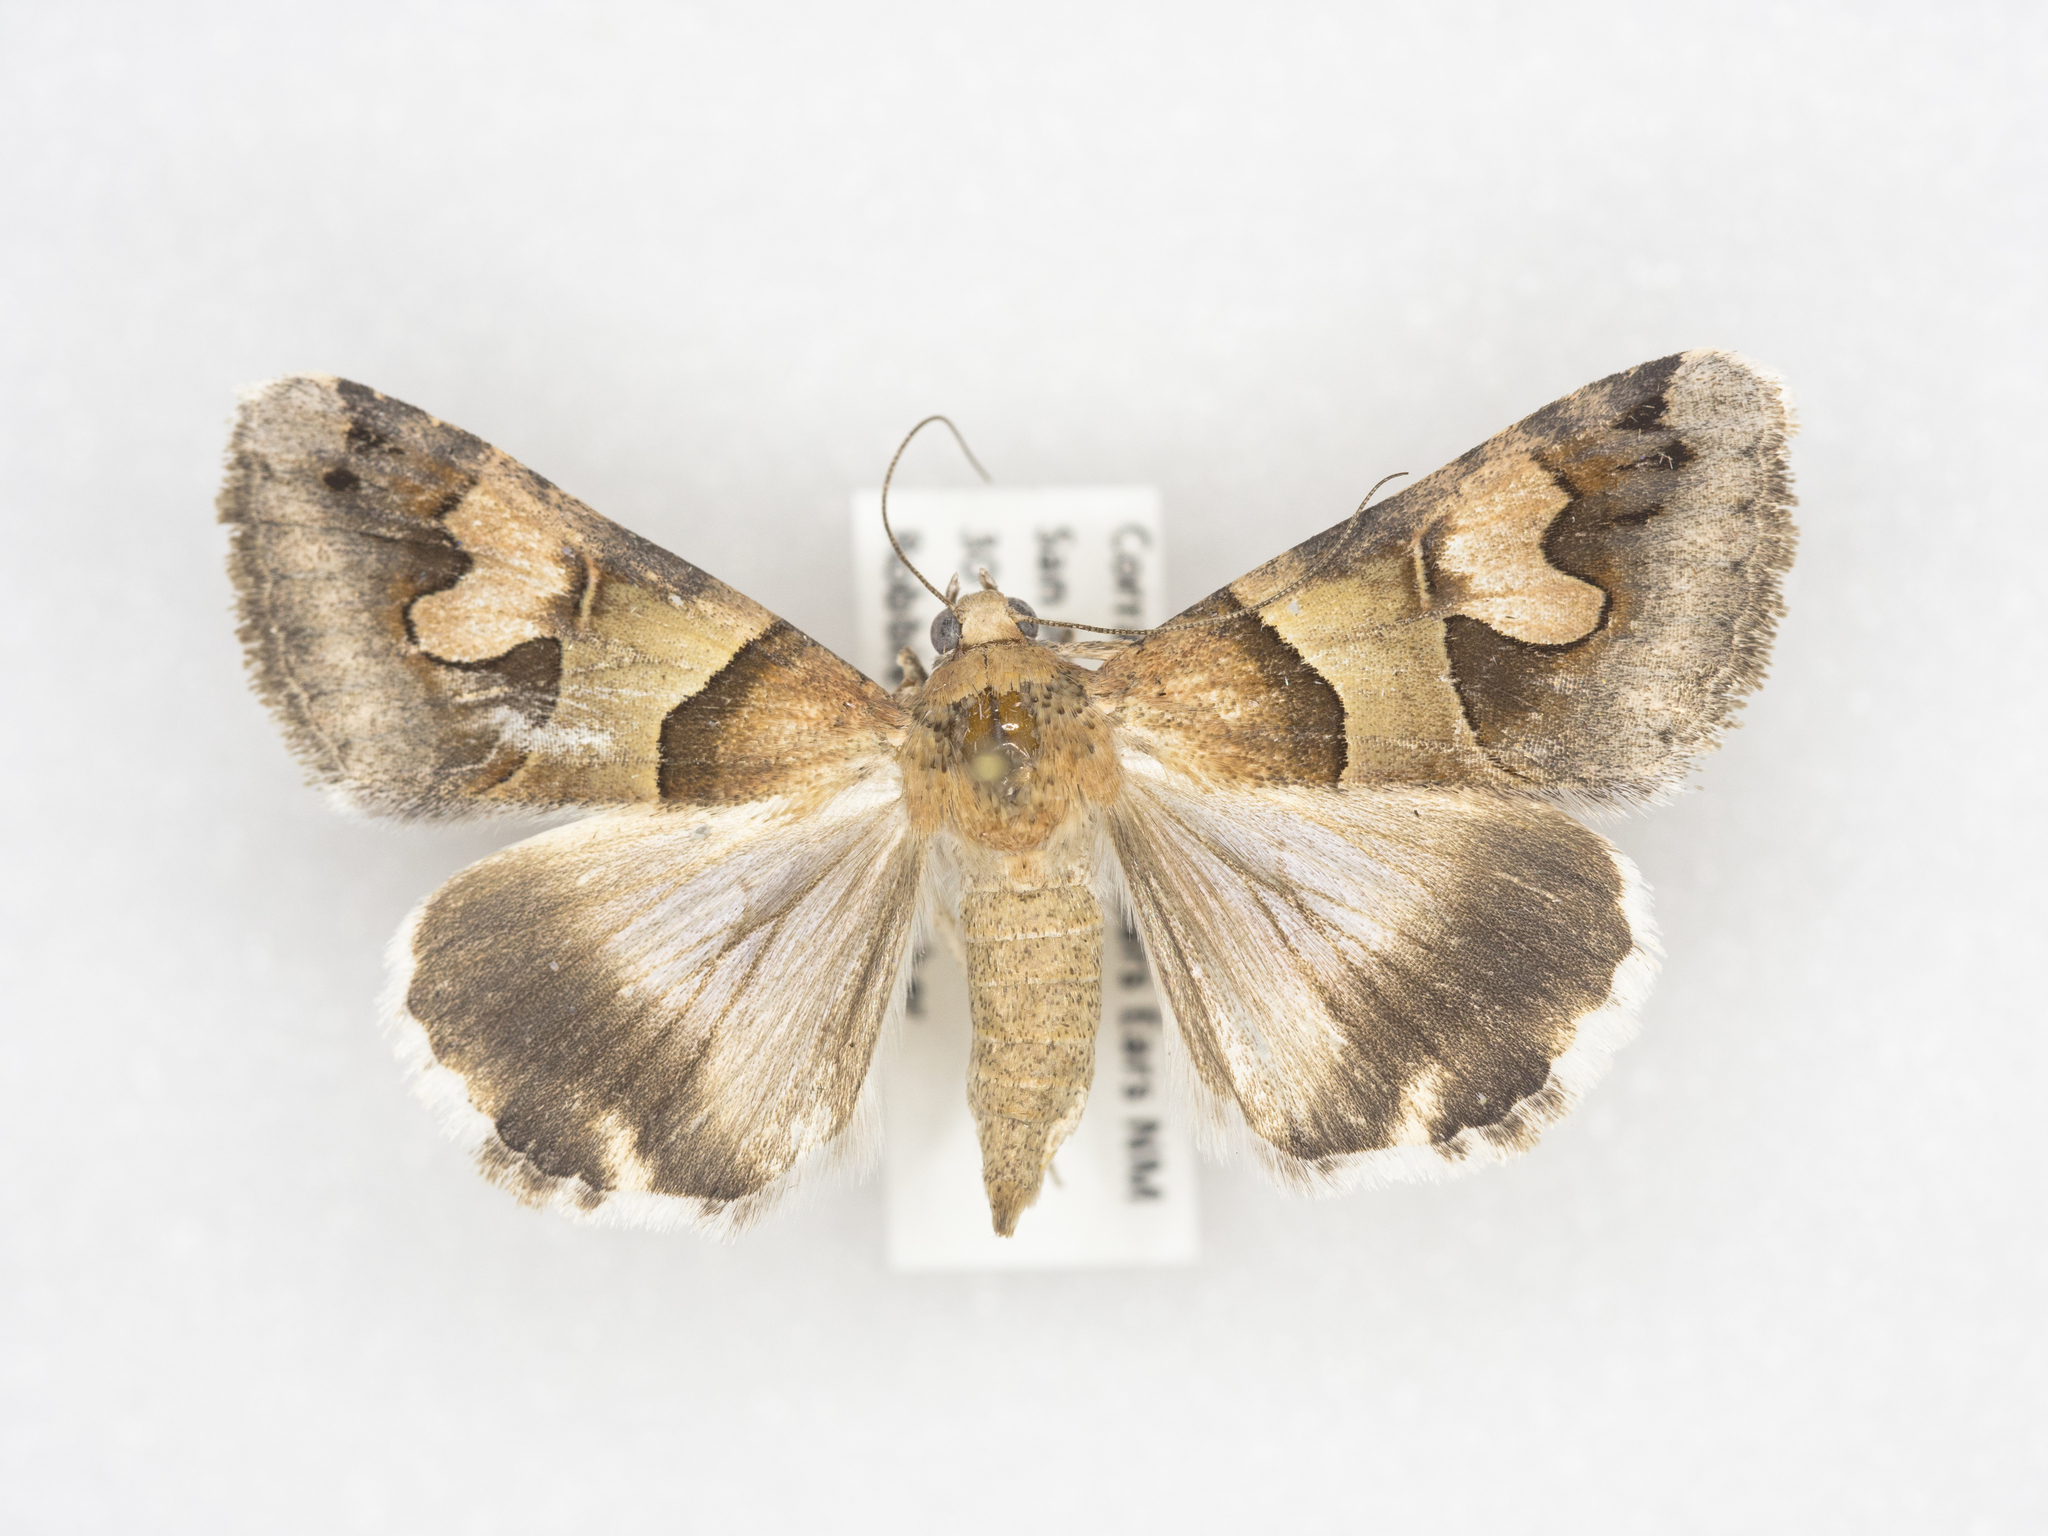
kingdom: Animalia
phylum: Arthropoda
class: Insecta
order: Lepidoptera
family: Erebidae
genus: Drasteria
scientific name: Drasteria pallescens
